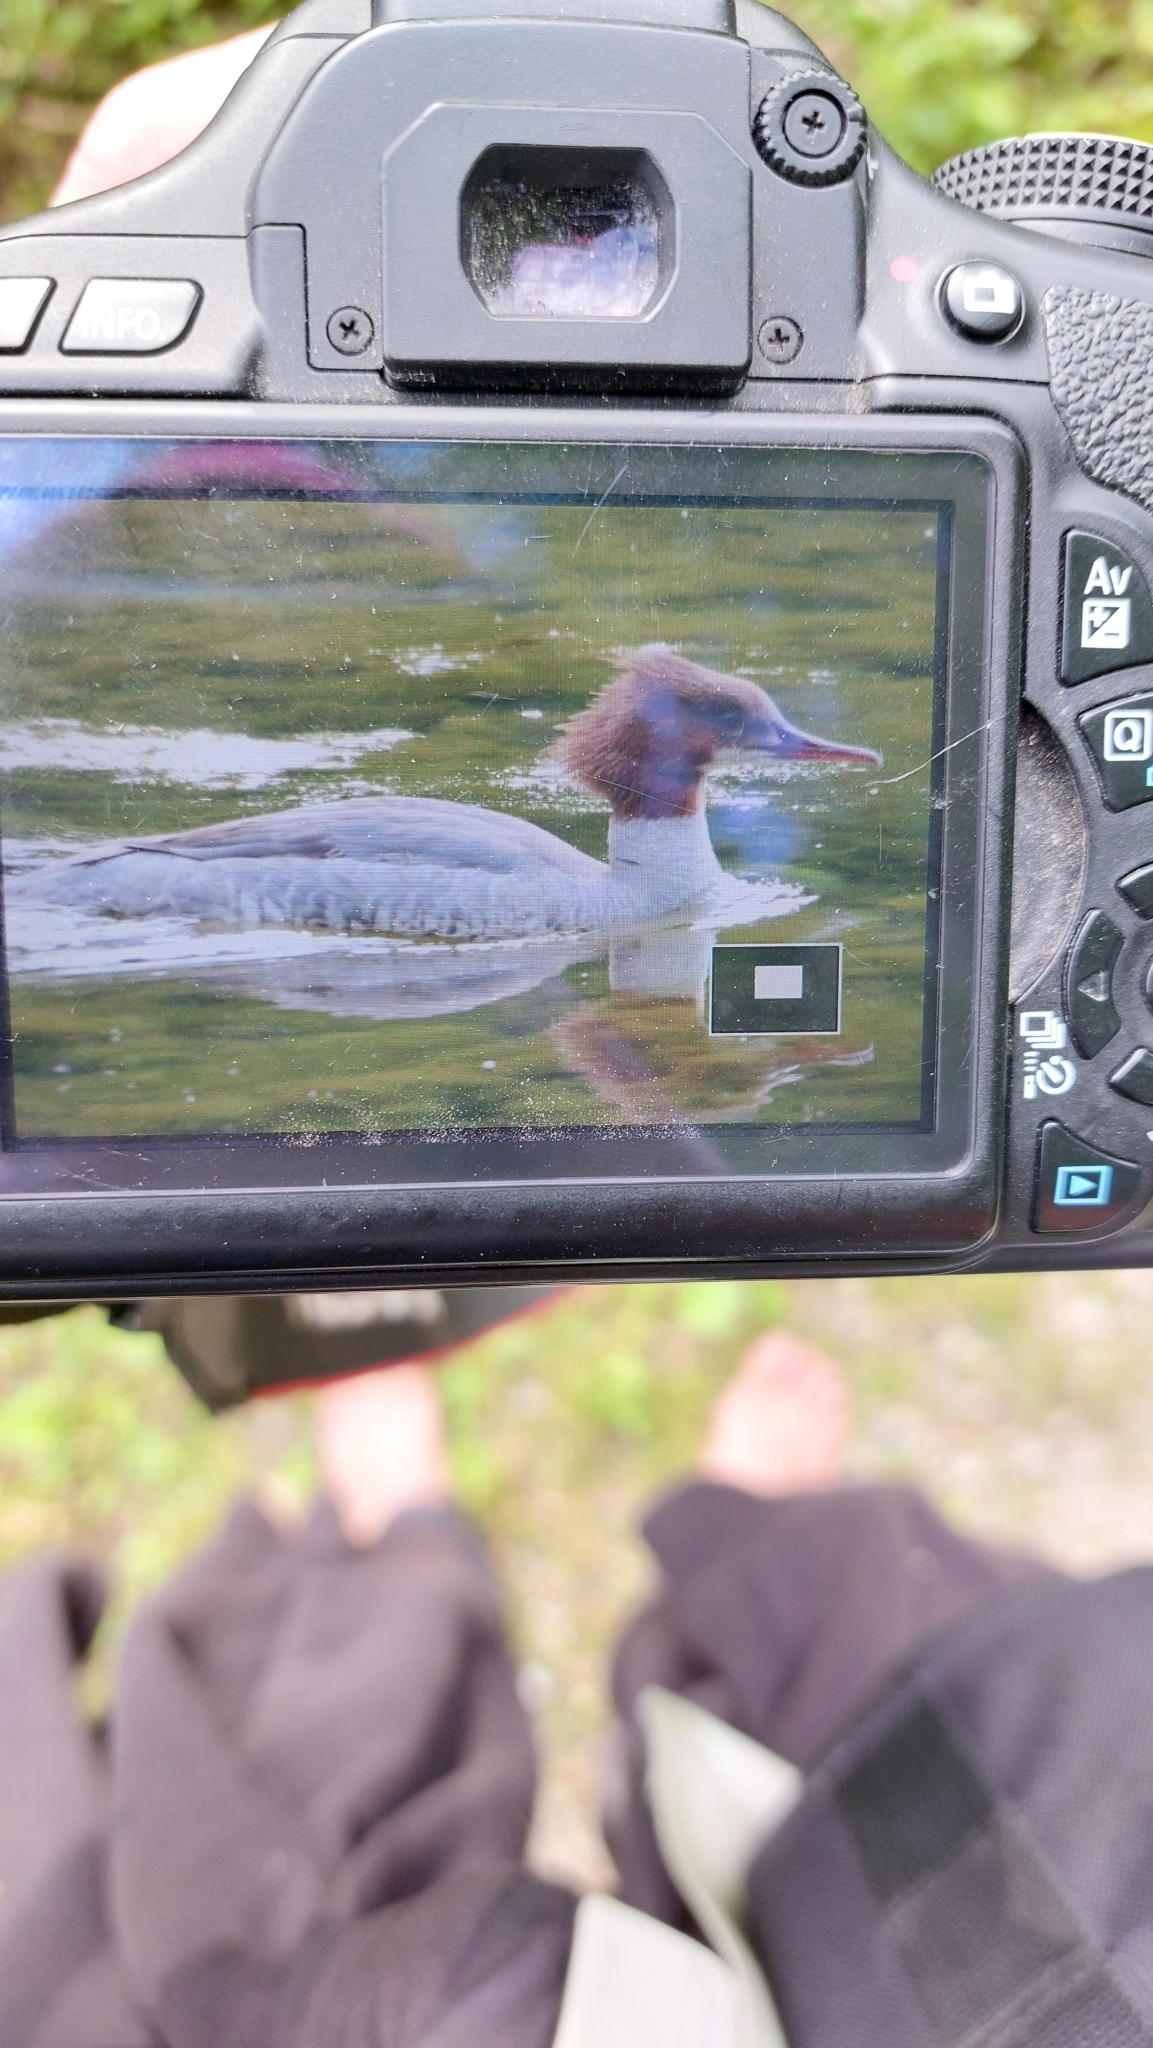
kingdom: Animalia
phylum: Chordata
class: Aves
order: Anseriformes
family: Anatidae
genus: Mergus
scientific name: Mergus merganser
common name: Common merganser
